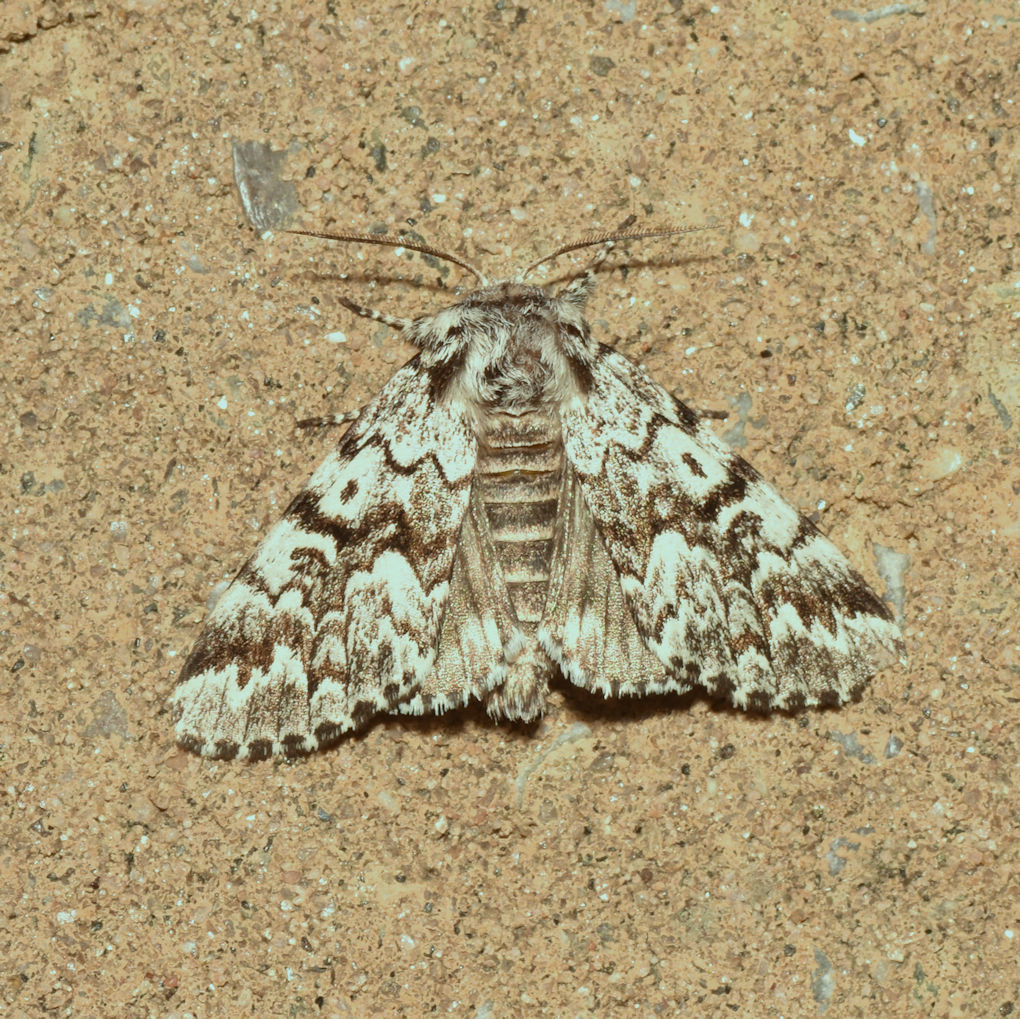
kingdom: Animalia
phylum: Arthropoda
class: Insecta
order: Lepidoptera
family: Noctuidae
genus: Panthea
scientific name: Panthea acronyctoides
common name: Black zigzag moth
